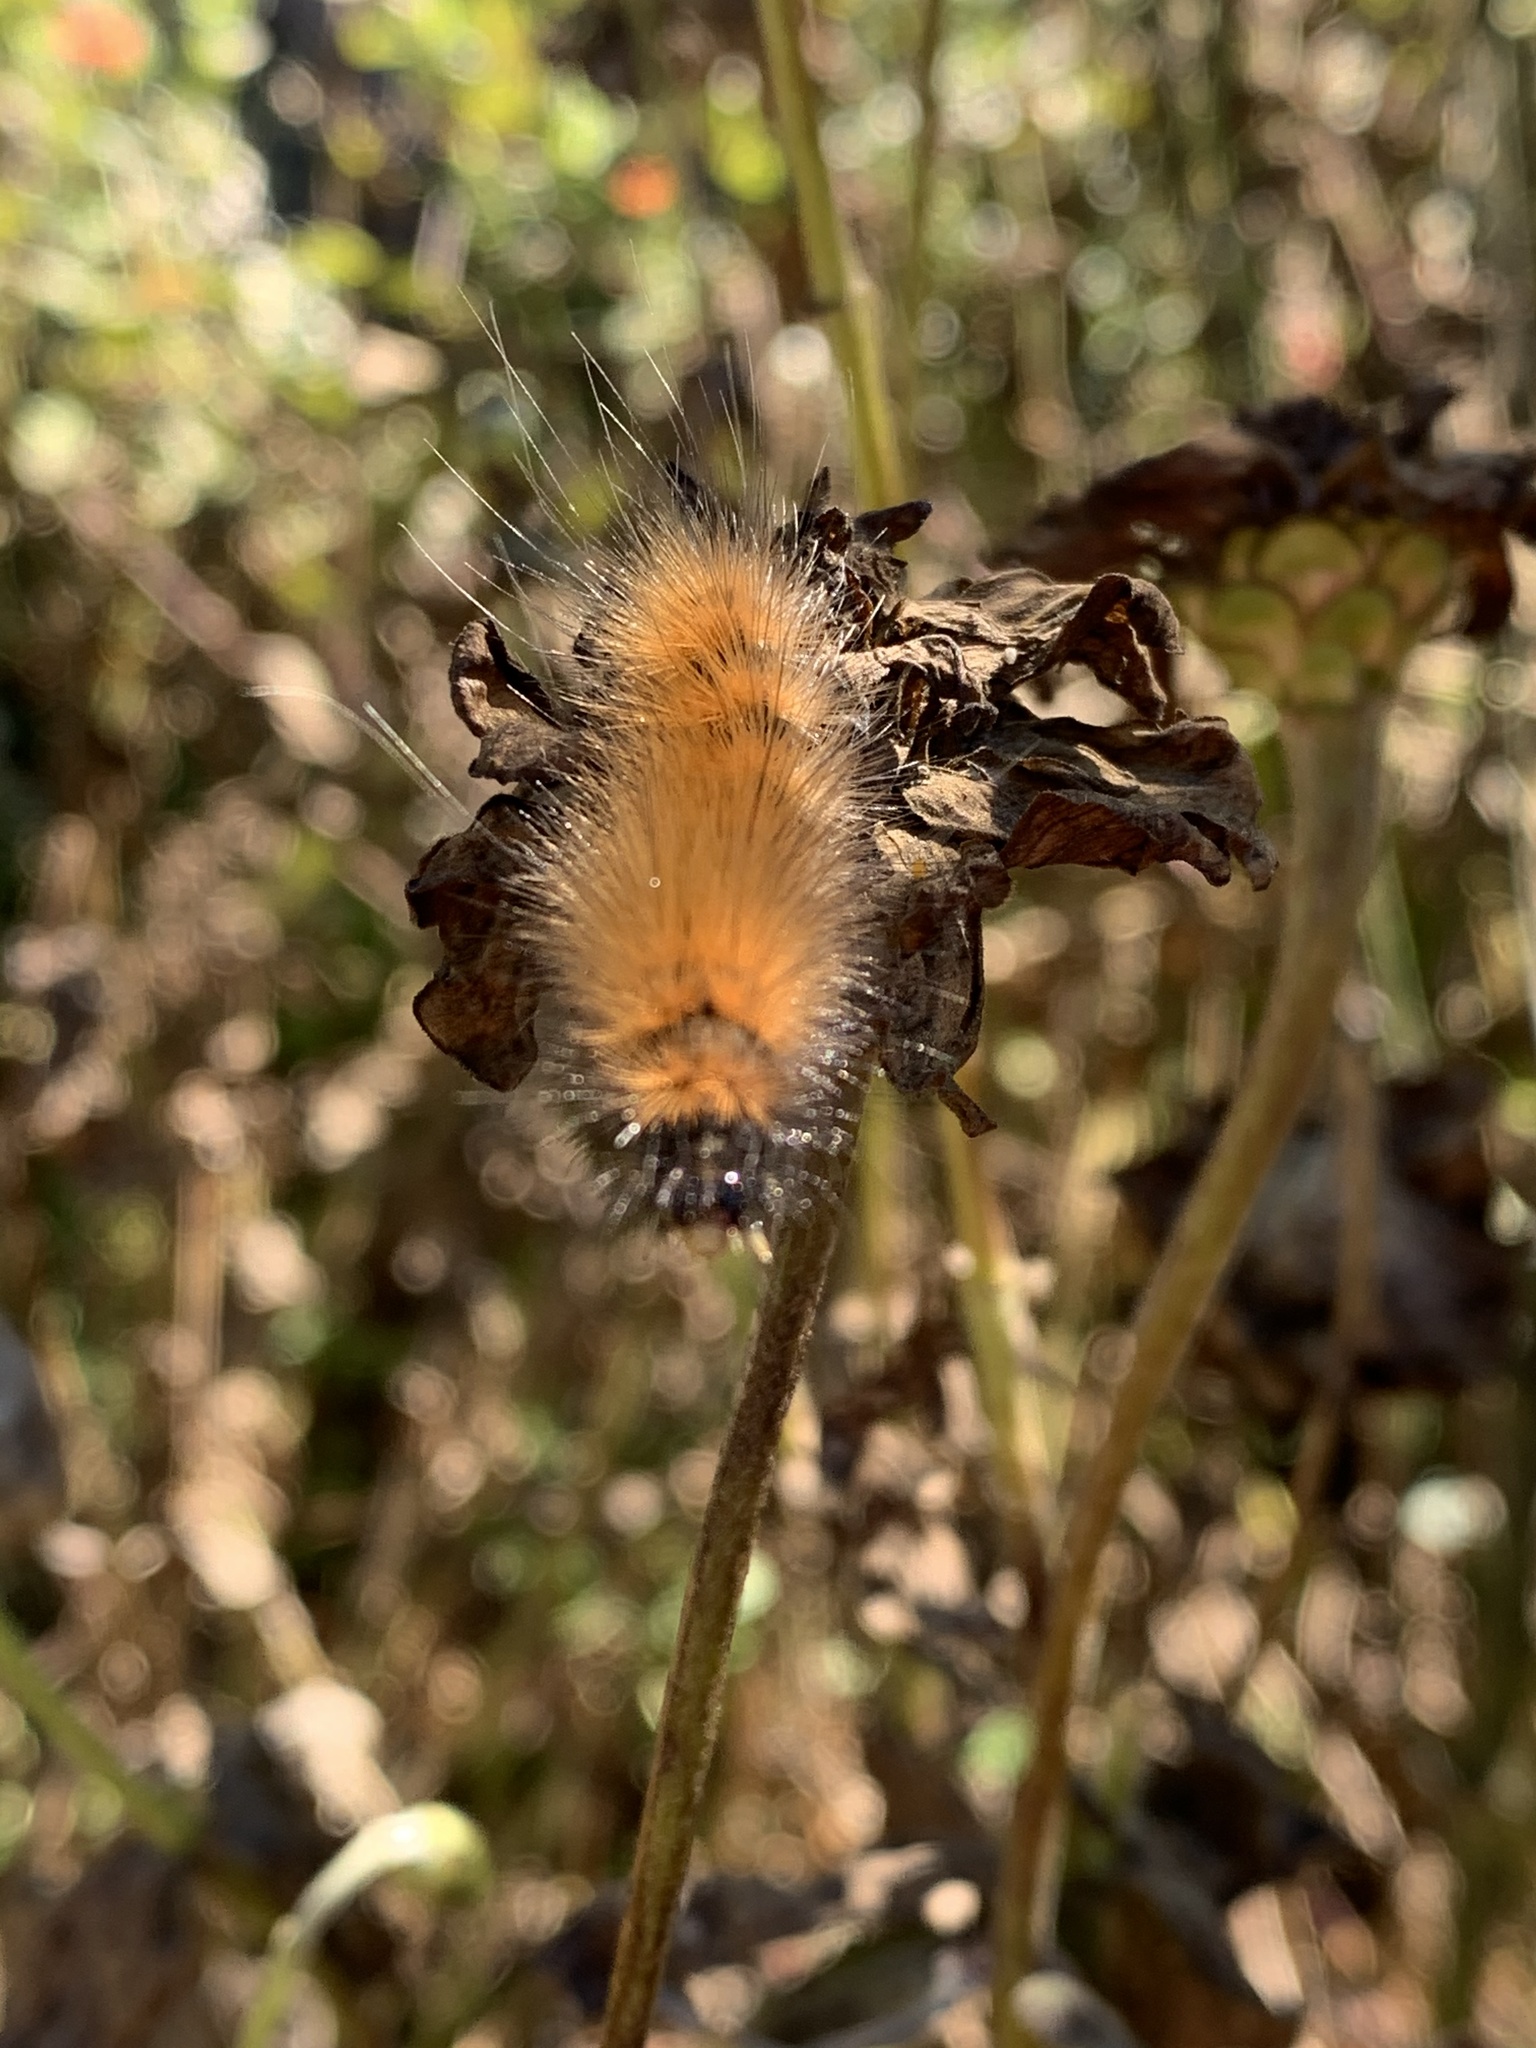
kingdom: Animalia
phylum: Arthropoda
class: Insecta
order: Lepidoptera
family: Erebidae
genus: Spilosoma
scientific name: Spilosoma virginica
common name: Virginia tiger moth
